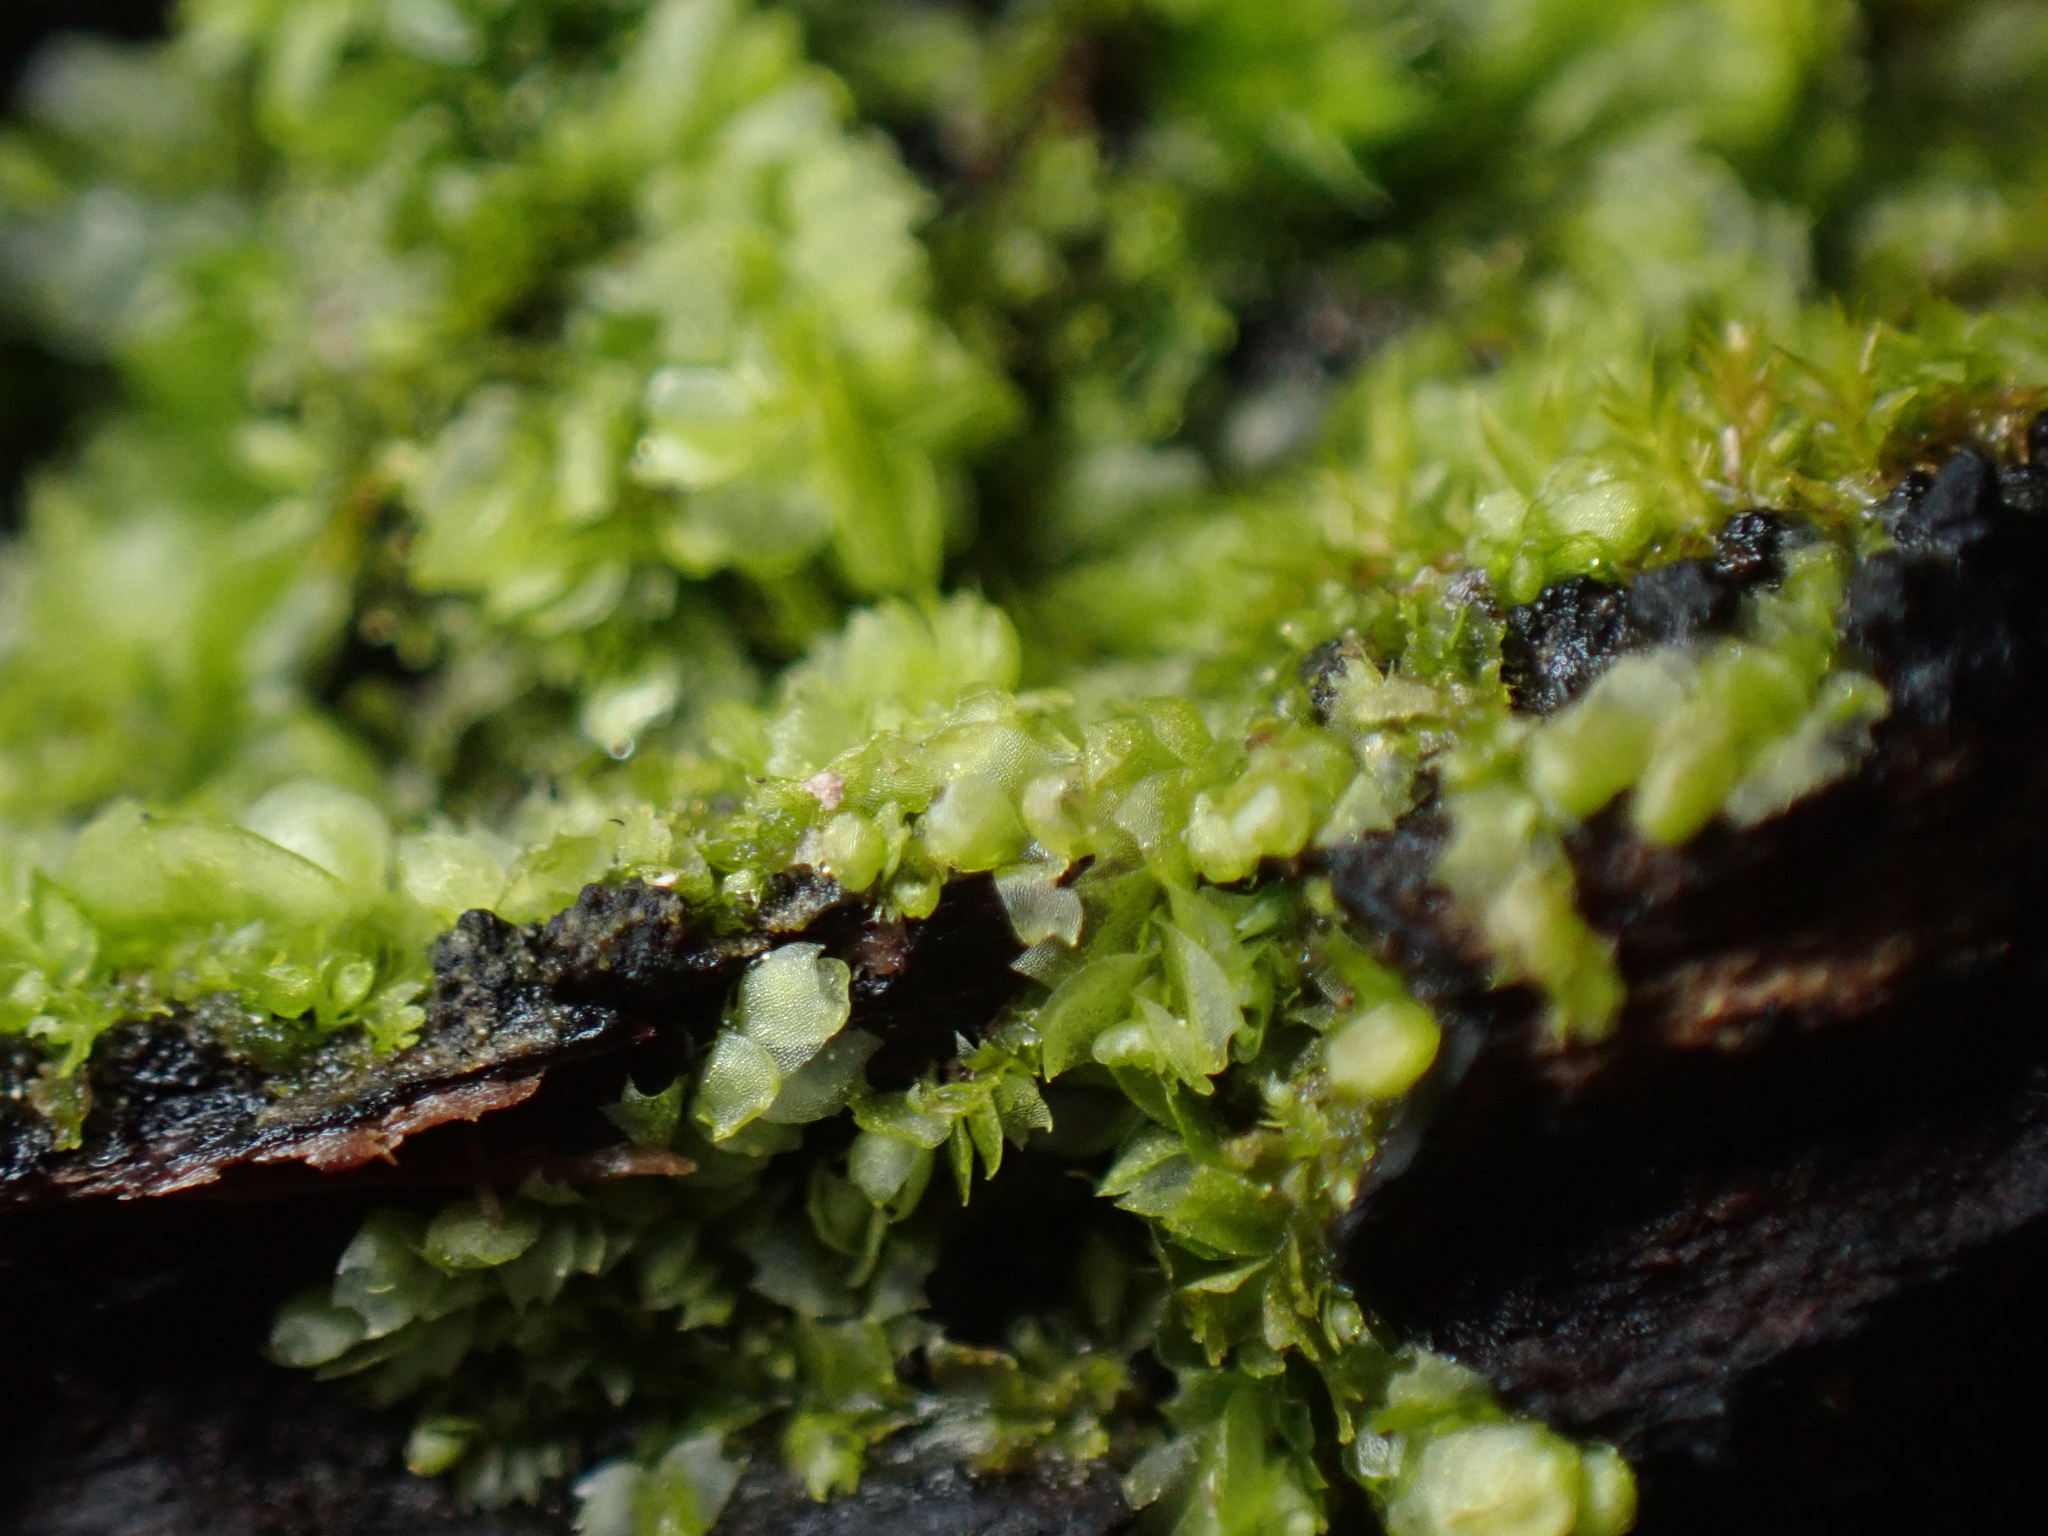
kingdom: Plantae
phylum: Marchantiophyta
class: Jungermanniopsida
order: Jungermanniales
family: Lophocoleaceae
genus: Lophocolea
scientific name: Lophocolea heterophylla
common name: Variable-leaved crestwort
